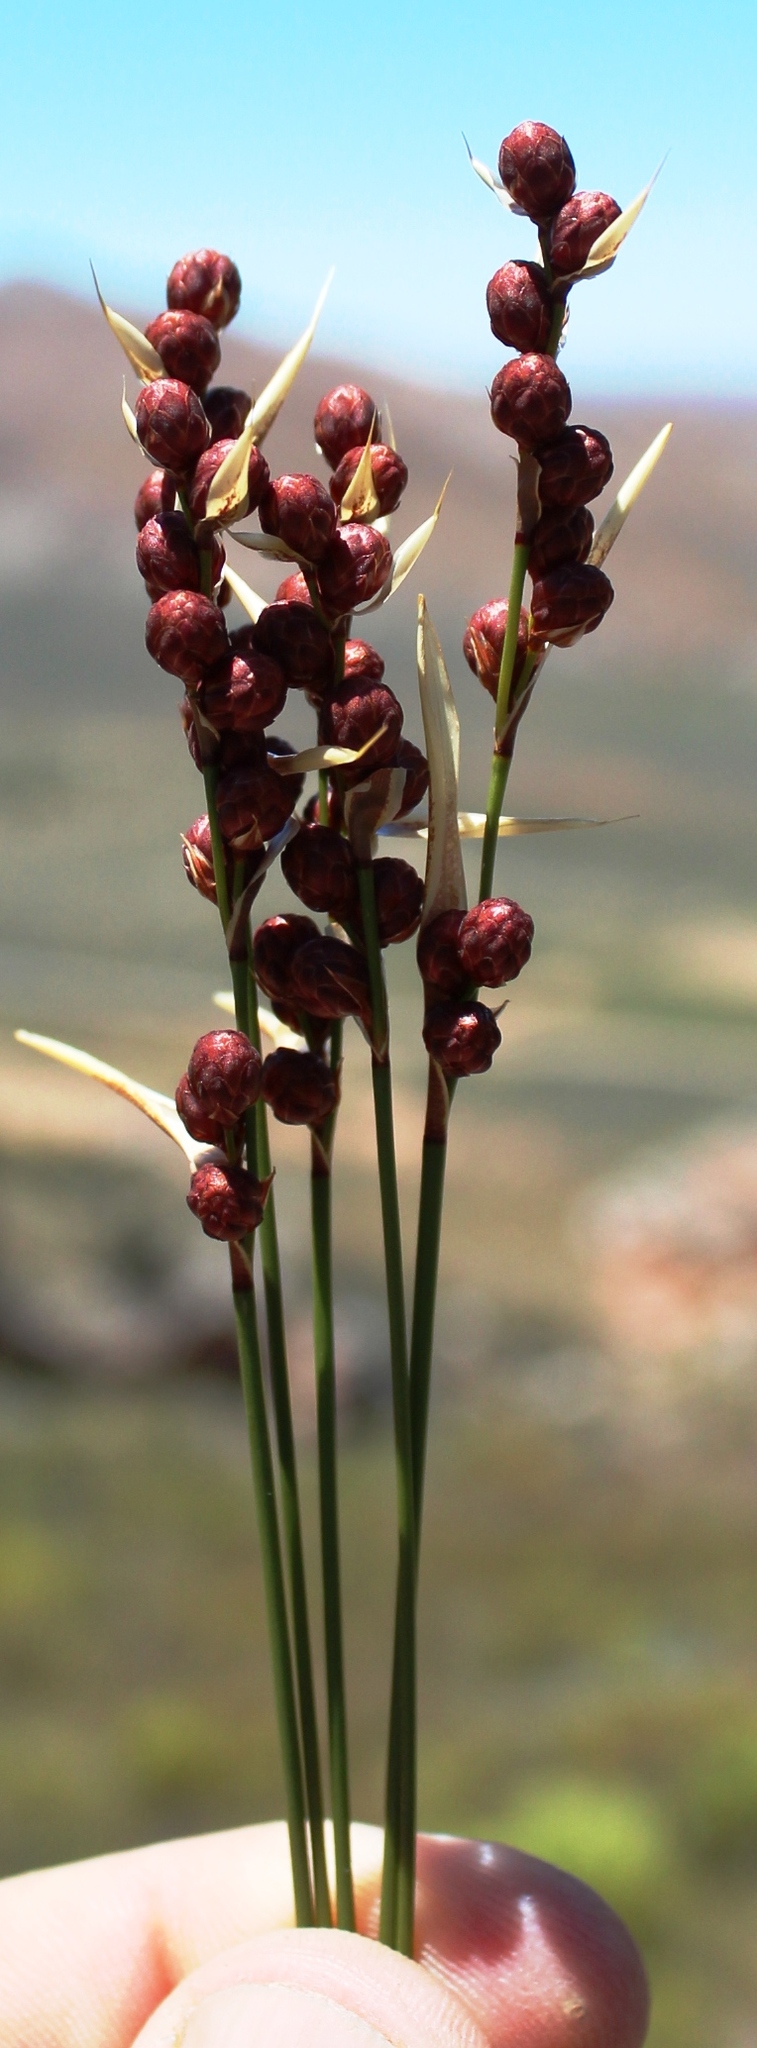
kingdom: Plantae
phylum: Tracheophyta
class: Liliopsida
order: Poales
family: Restionaceae
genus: Hypodiscus
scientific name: Hypodiscus laevigatus
